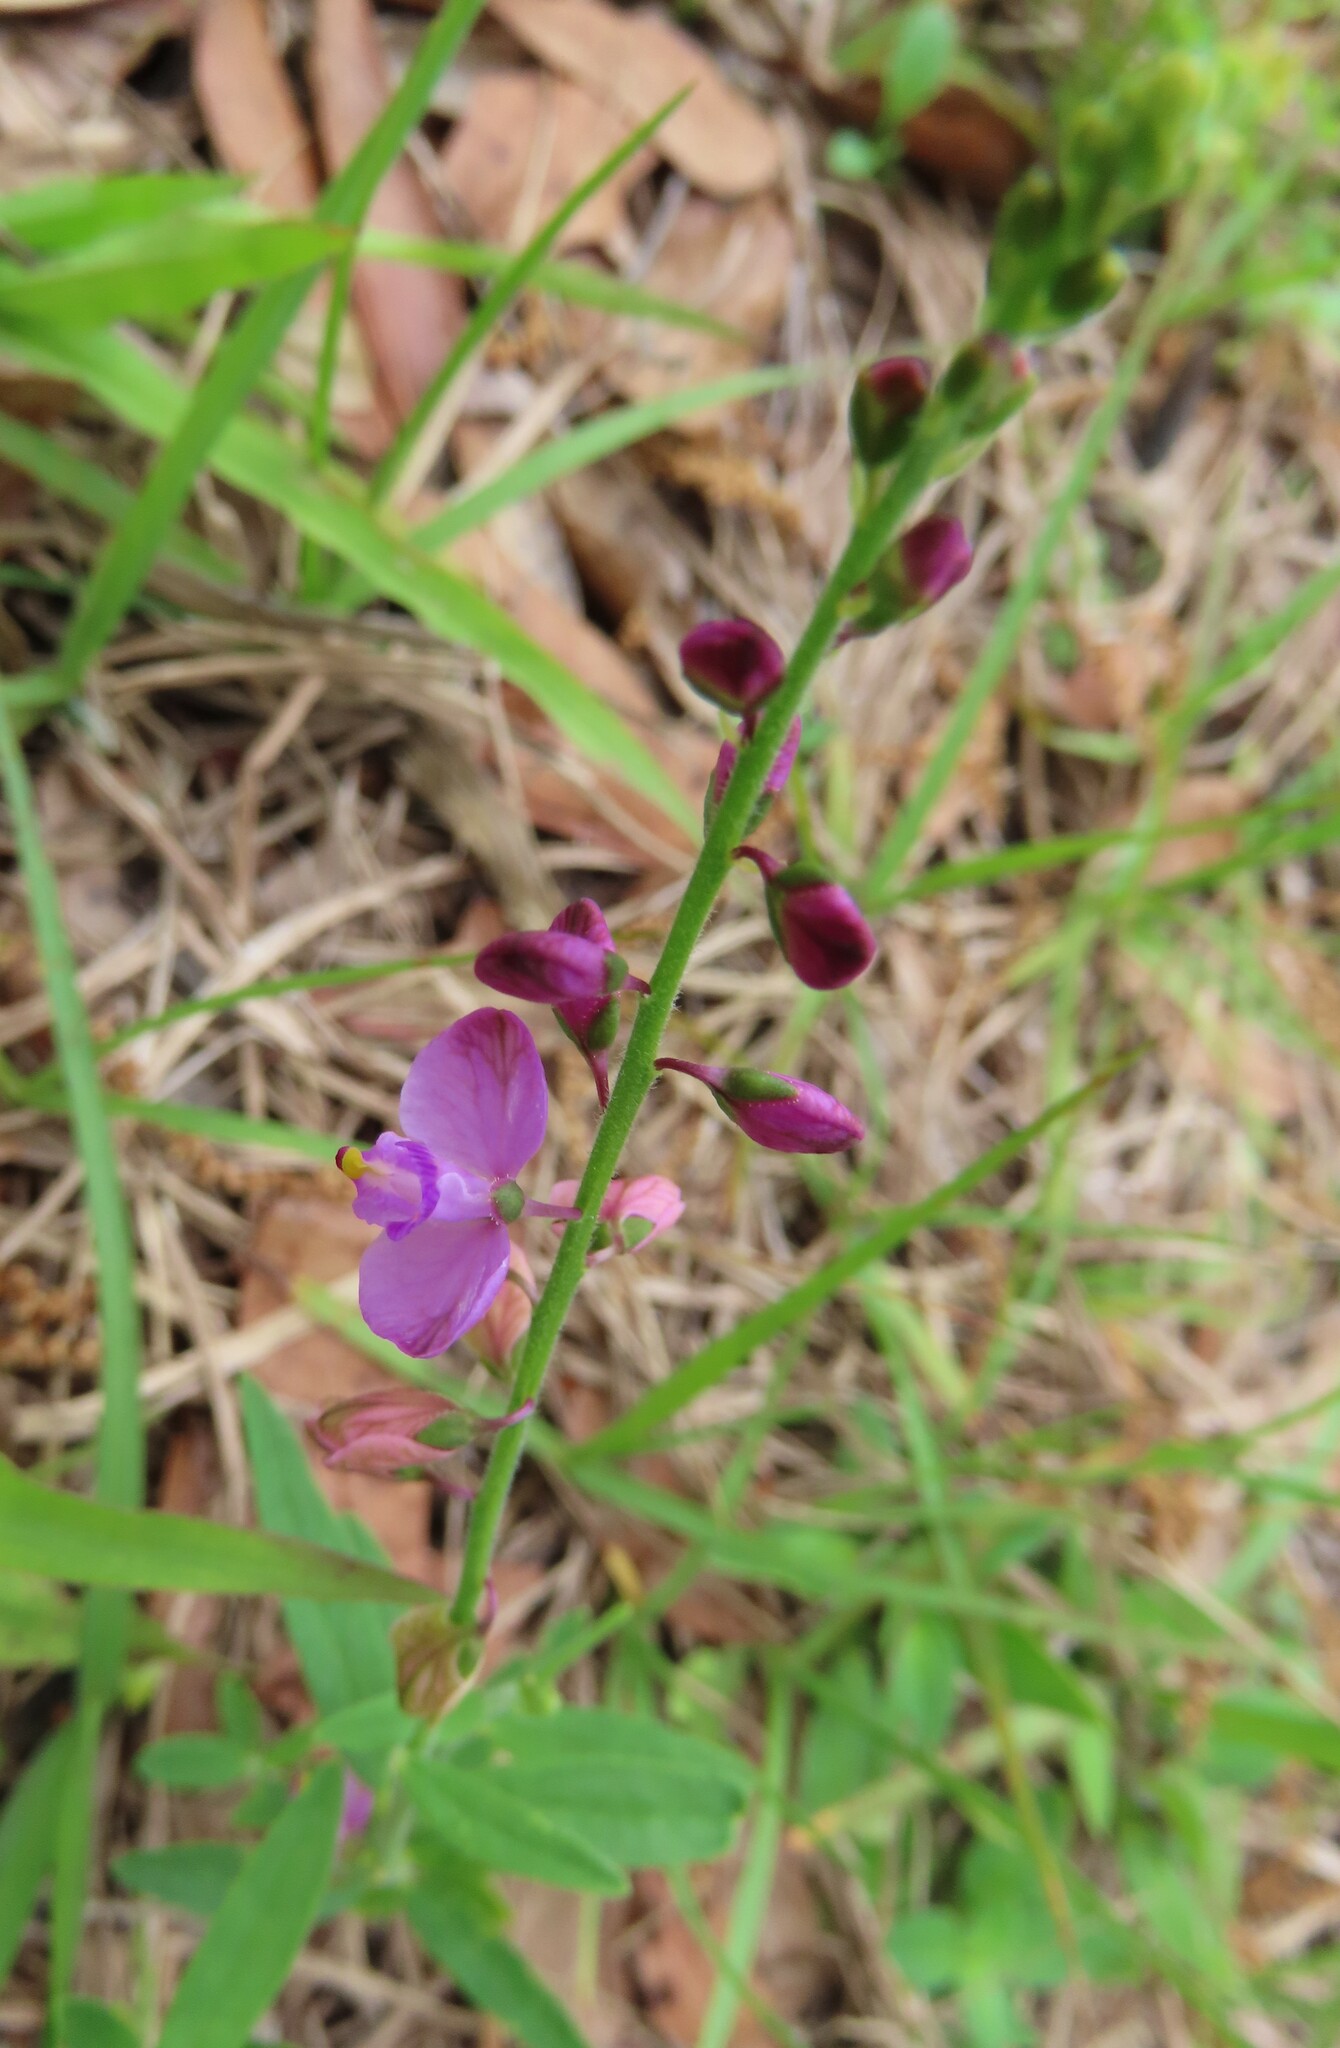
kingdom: Plantae
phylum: Tracheophyta
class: Magnoliopsida
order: Fabales
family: Polygalaceae
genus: Asemeia
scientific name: Asemeia grandiflora
